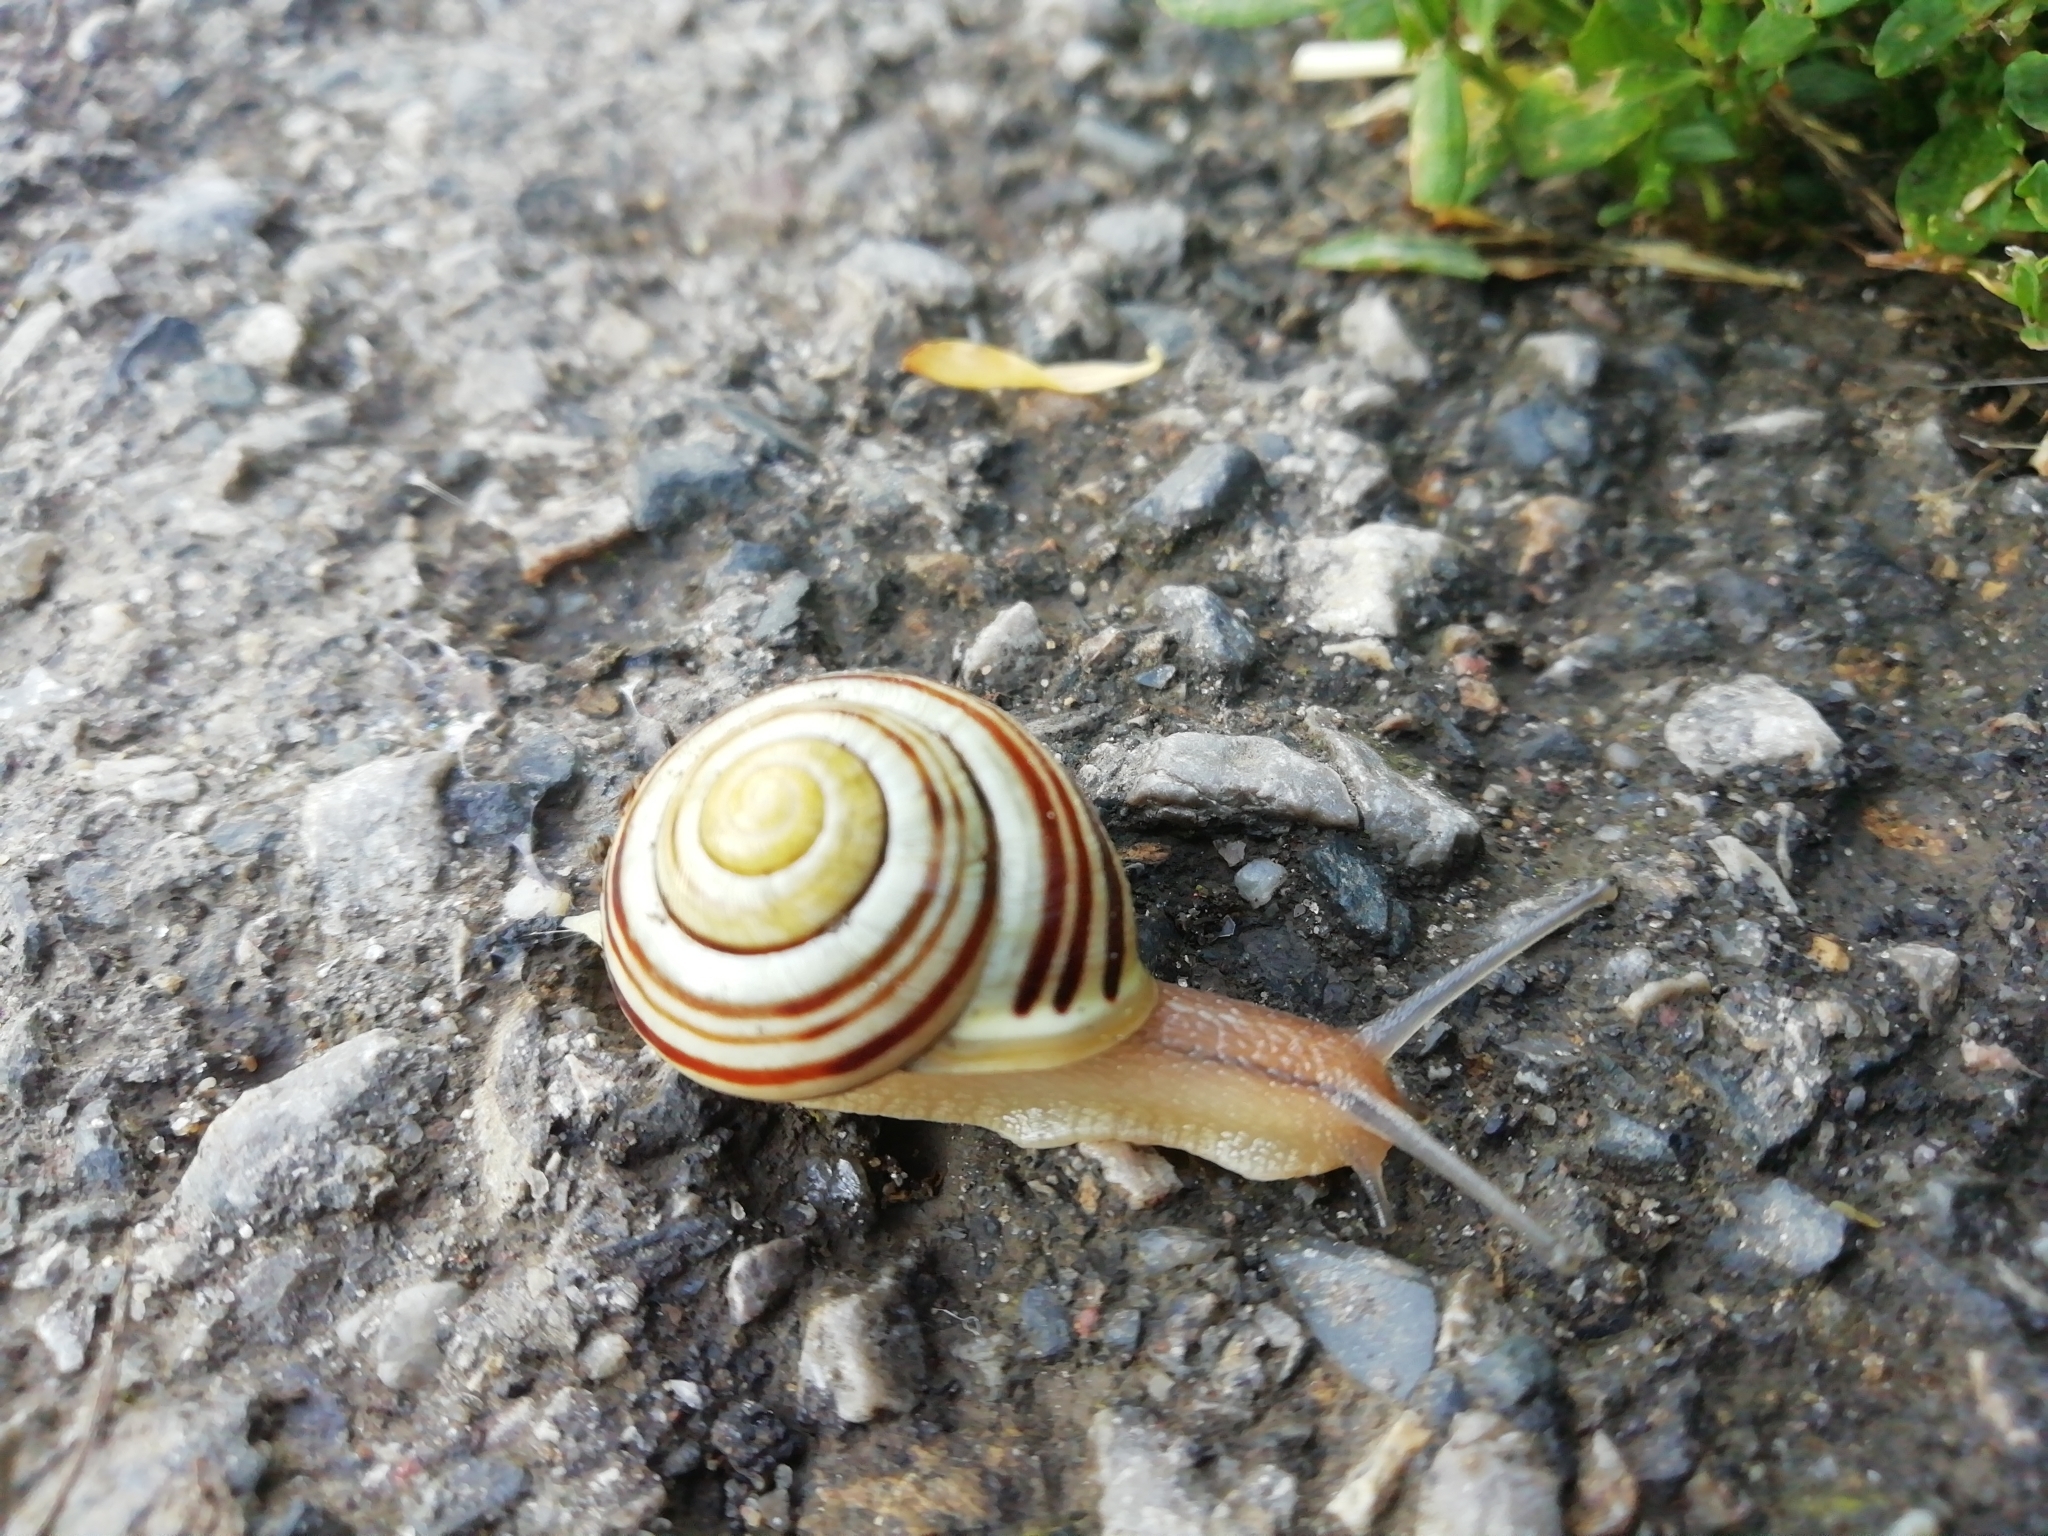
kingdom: Animalia
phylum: Mollusca
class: Gastropoda
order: Stylommatophora
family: Helicidae
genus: Cepaea
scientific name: Cepaea hortensis
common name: White-lip gardensnail
